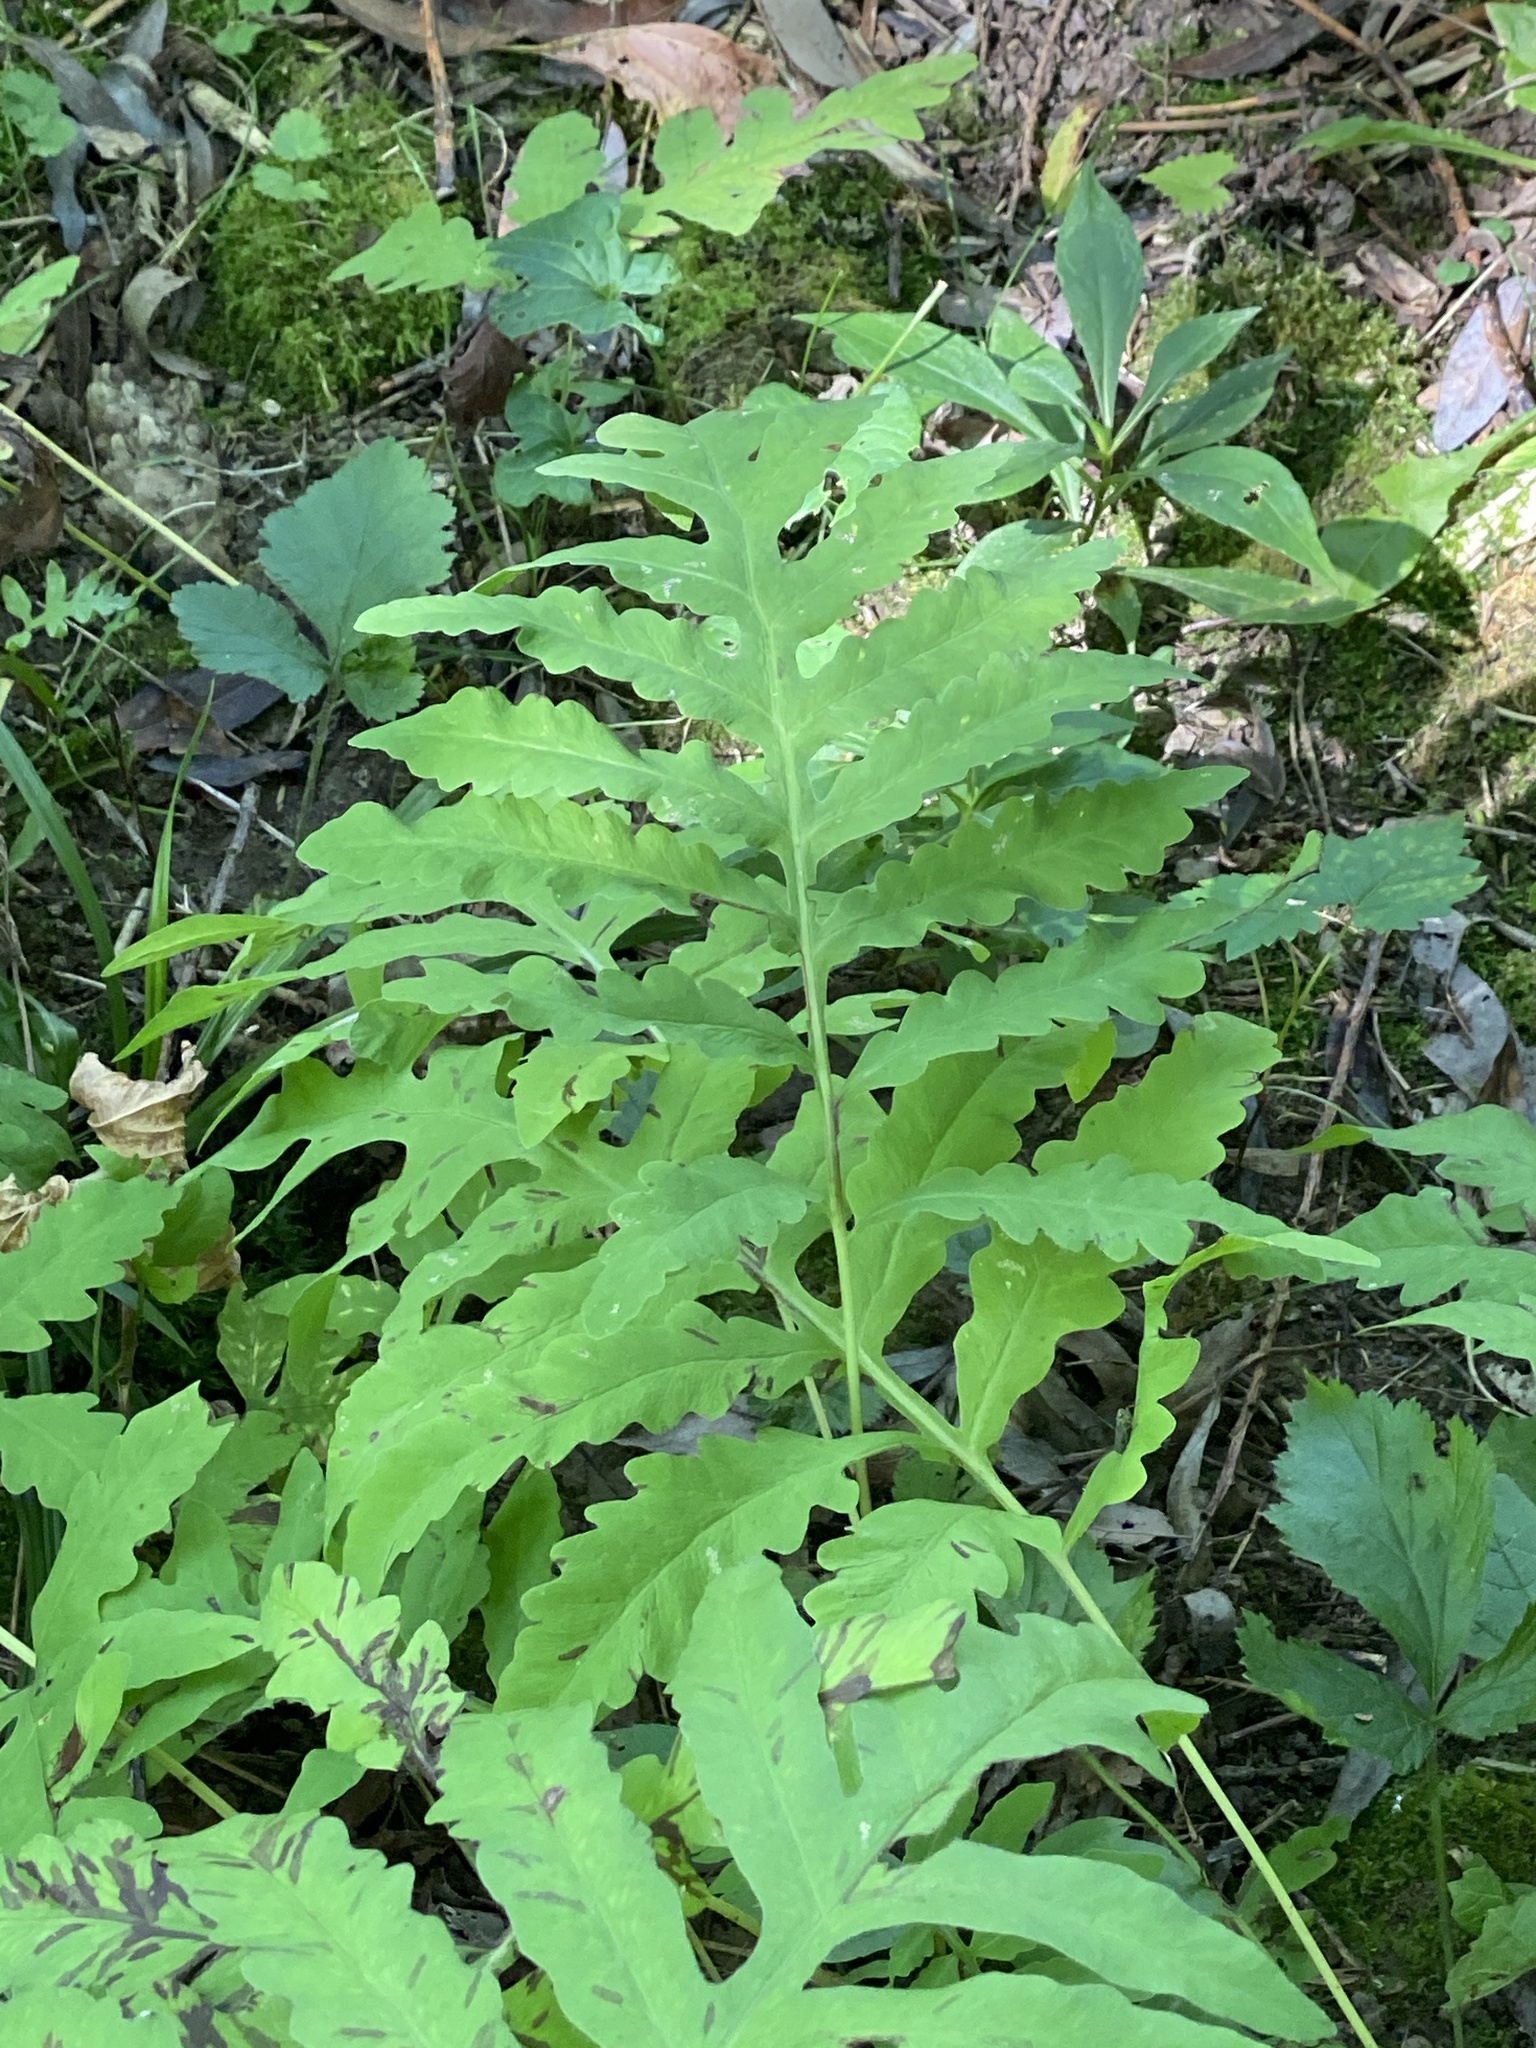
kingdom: Plantae
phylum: Tracheophyta
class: Polypodiopsida
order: Polypodiales
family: Onocleaceae
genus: Onoclea
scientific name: Onoclea sensibilis
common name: Sensitive fern
